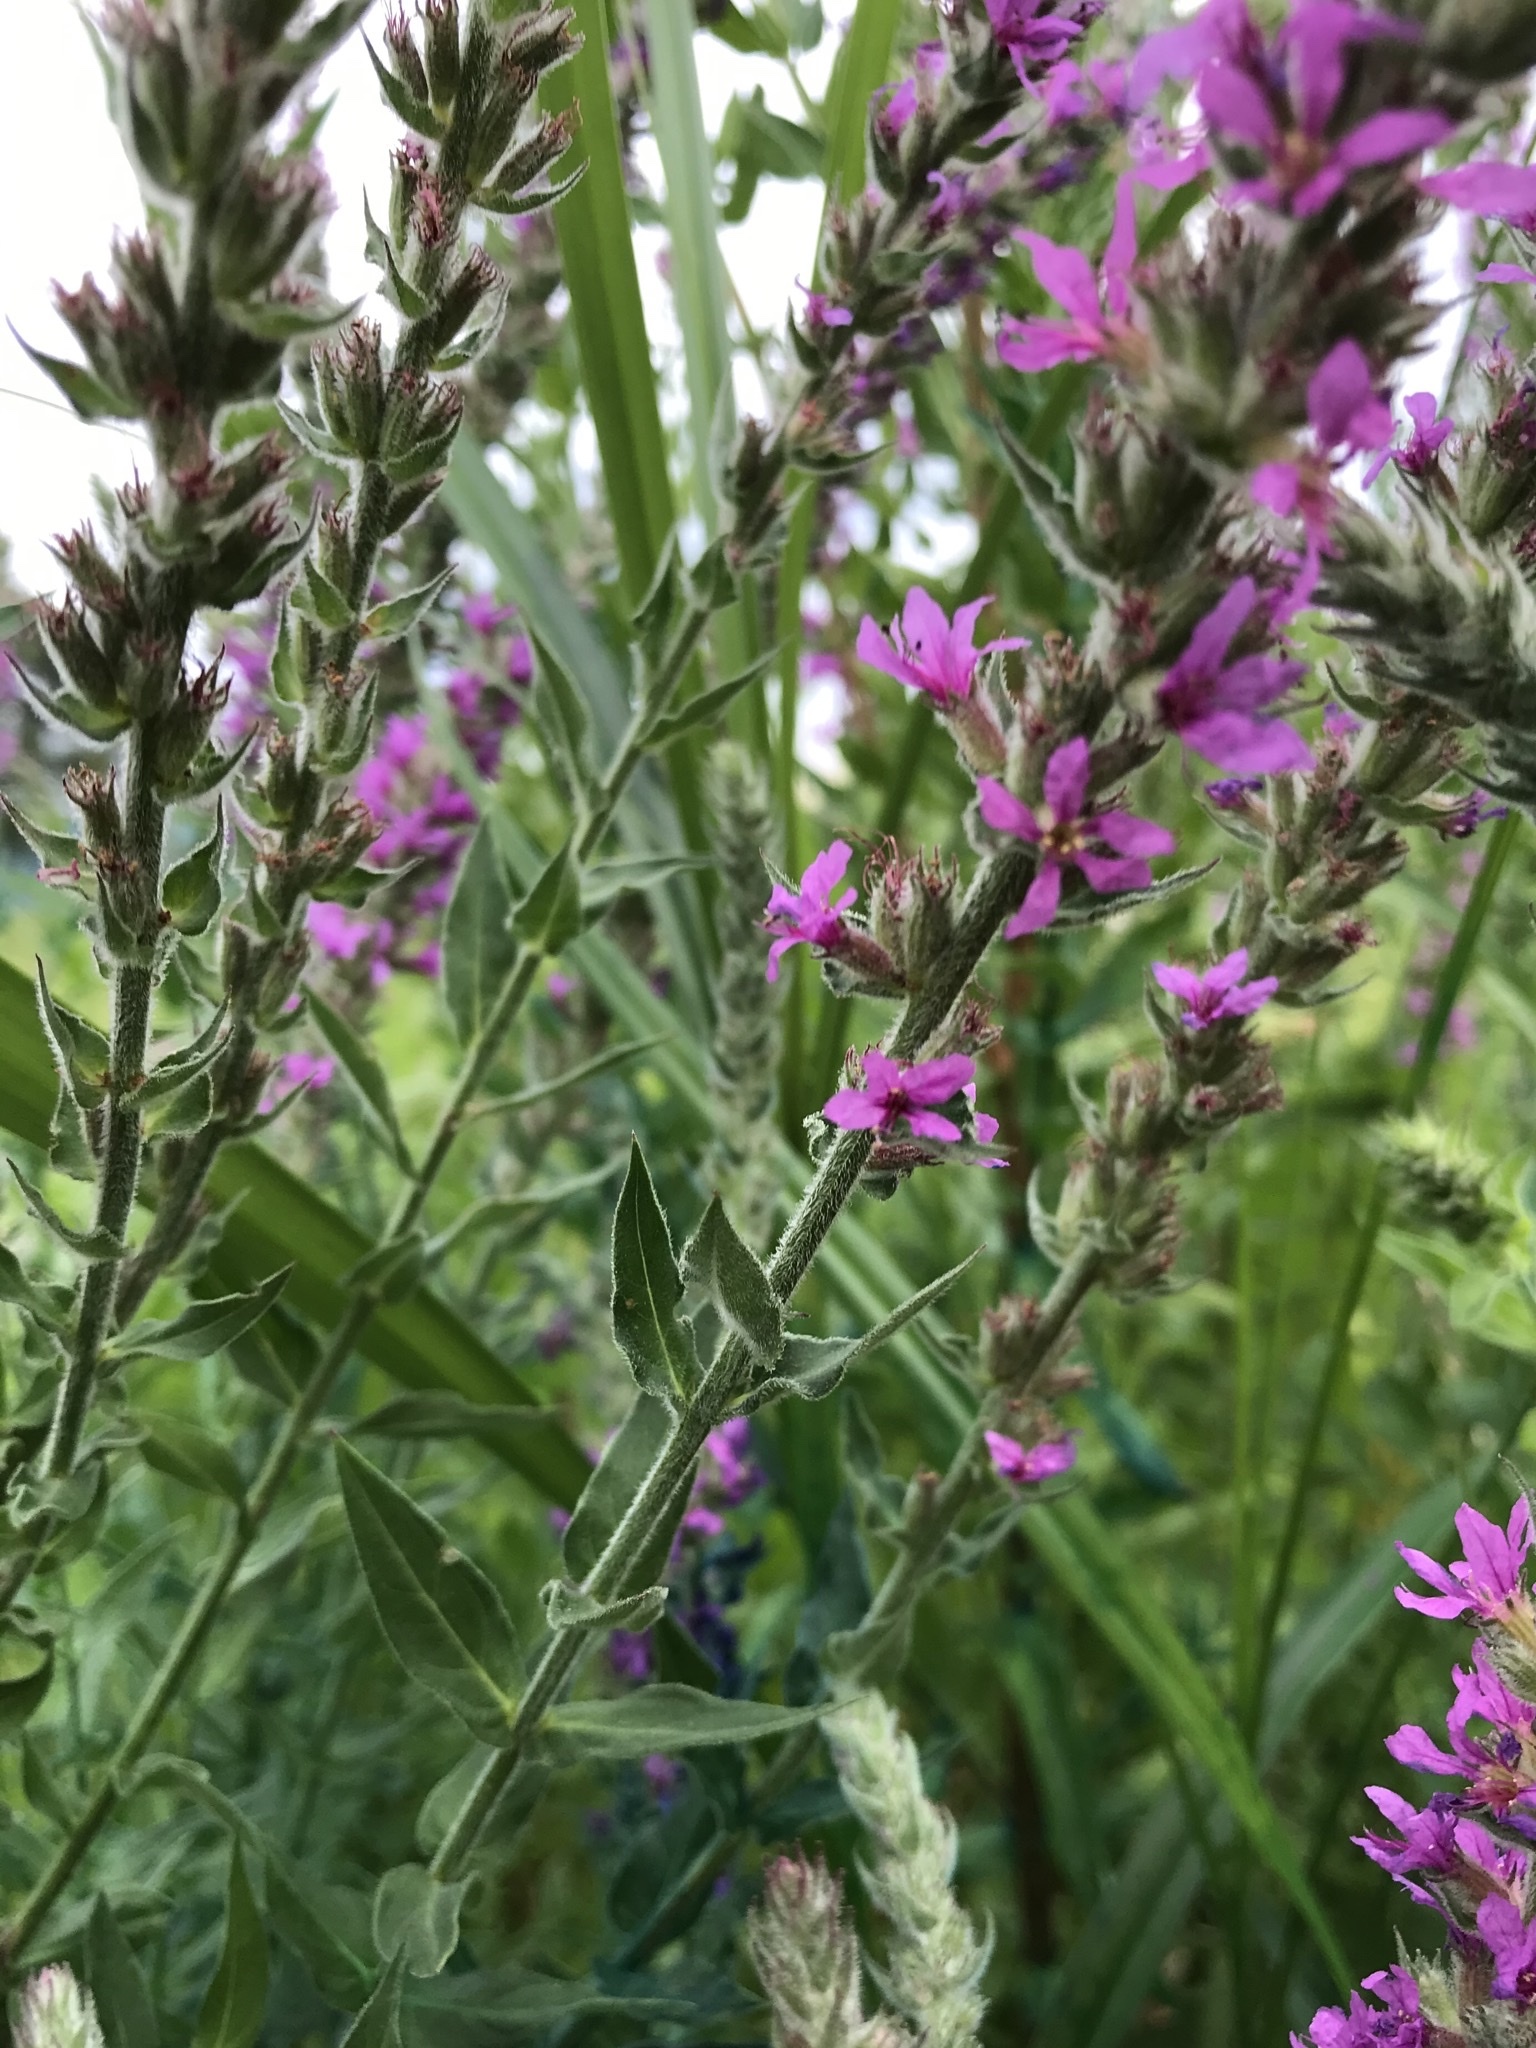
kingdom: Plantae
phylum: Tracheophyta
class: Magnoliopsida
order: Myrtales
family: Lythraceae
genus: Lythrum
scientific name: Lythrum salicaria
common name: Purple loosestrife
